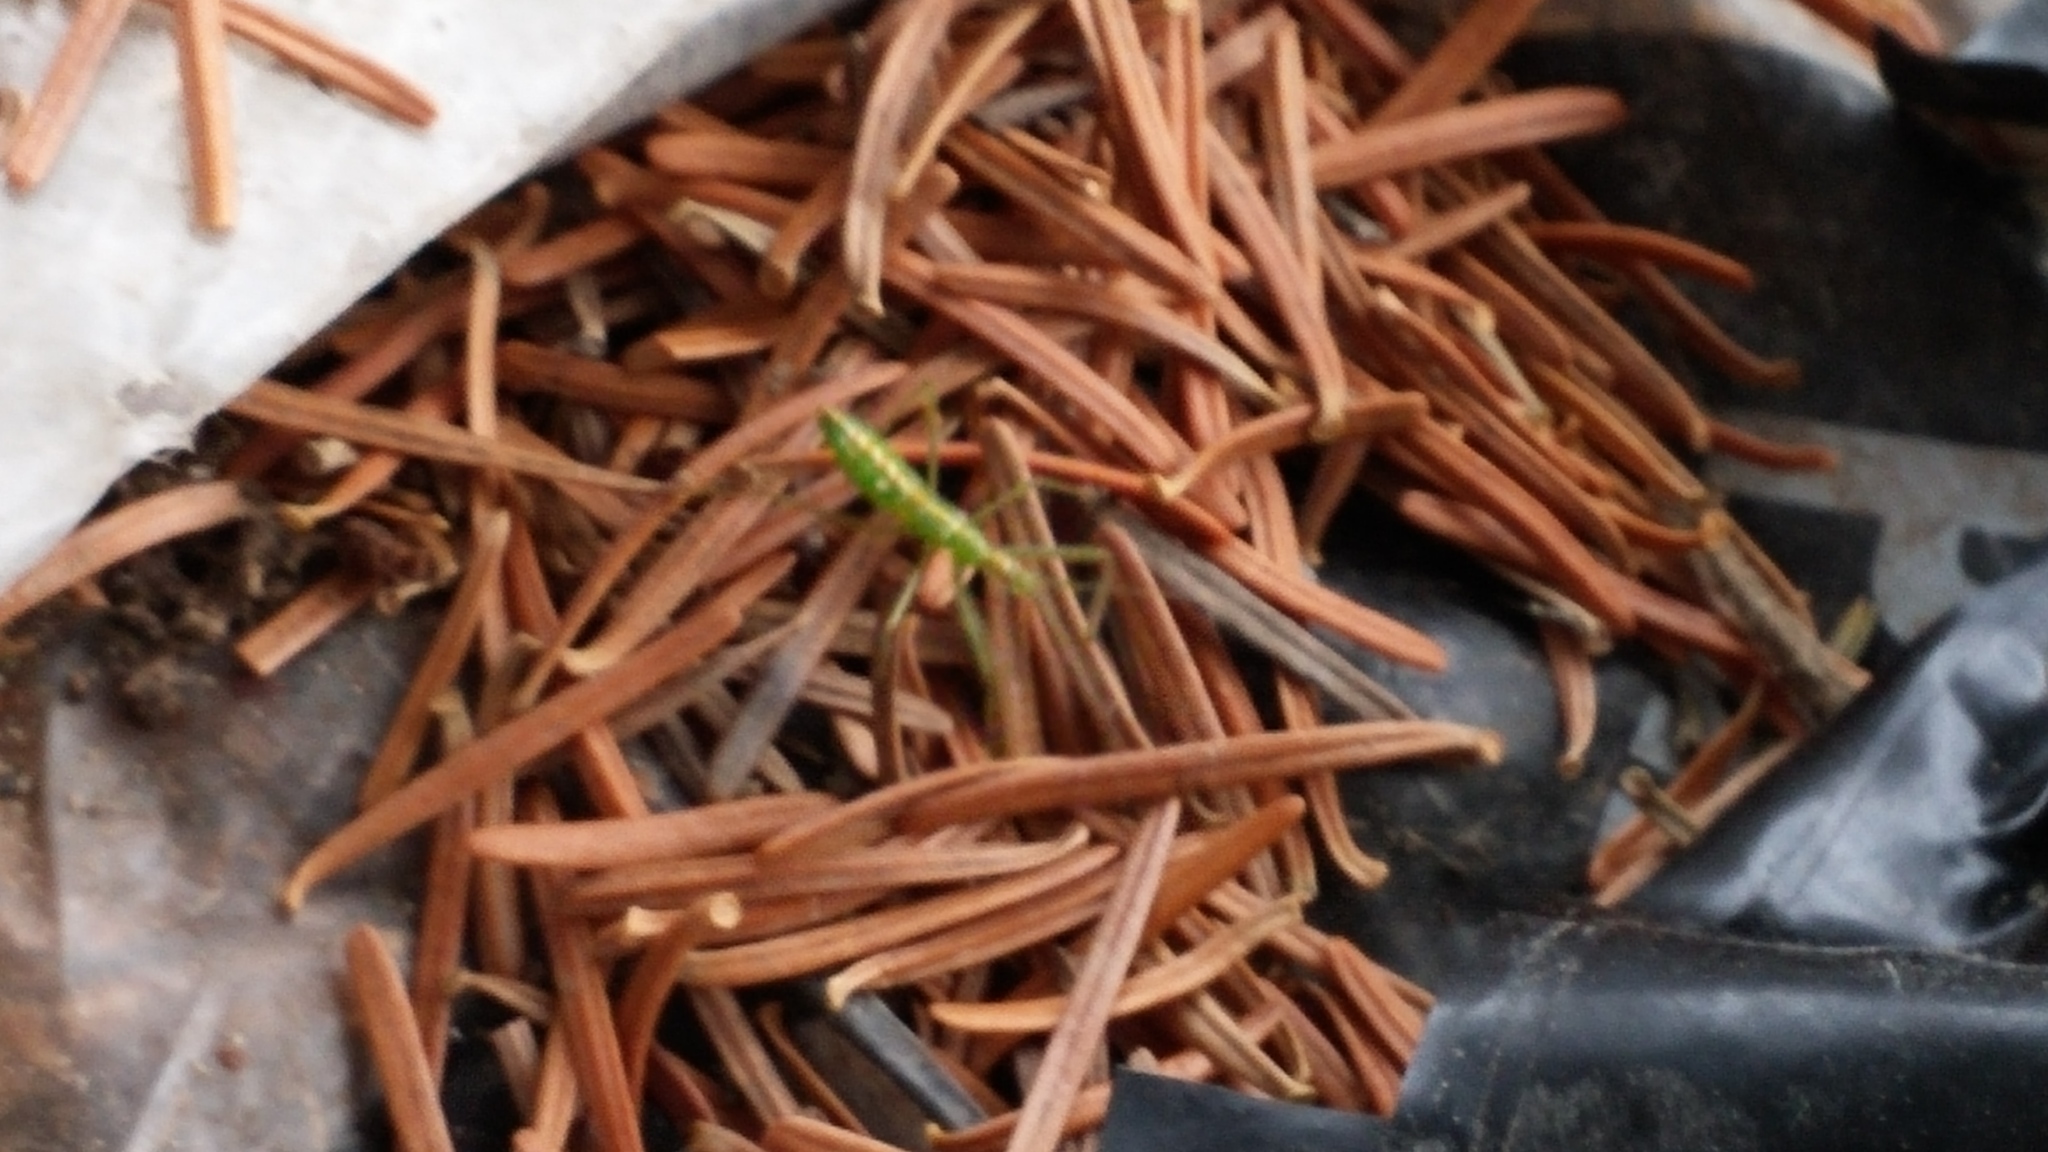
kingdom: Animalia
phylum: Arthropoda
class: Insecta
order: Hemiptera
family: Reduviidae
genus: Zelus
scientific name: Zelus luridus
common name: Pale green assassin bug
